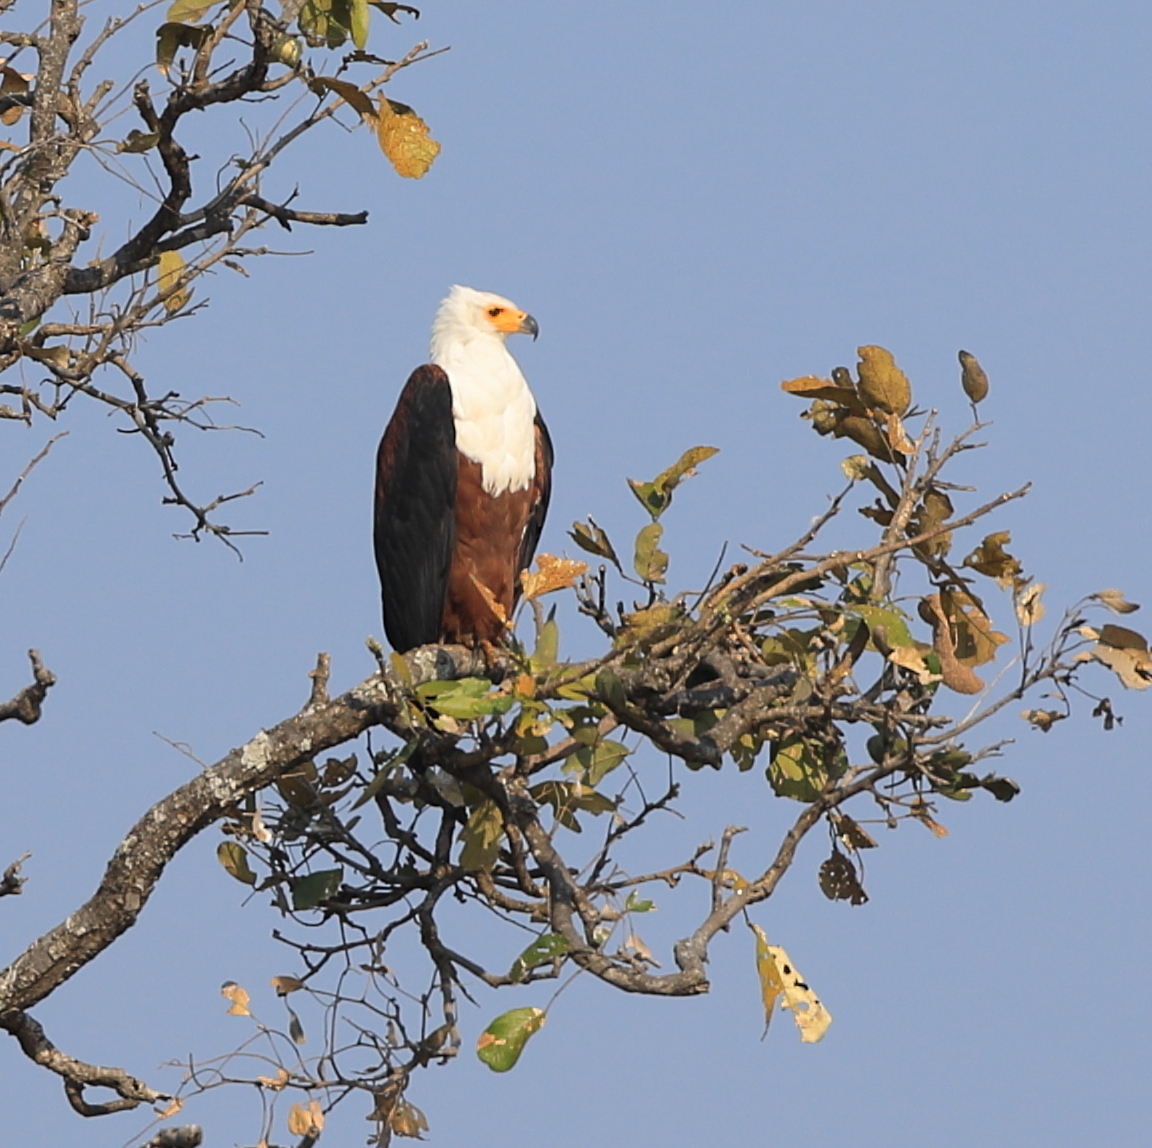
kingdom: Animalia
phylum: Chordata
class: Aves
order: Accipitriformes
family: Accipitridae
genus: Haliaeetus
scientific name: Haliaeetus vocifer
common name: African fish eagle
